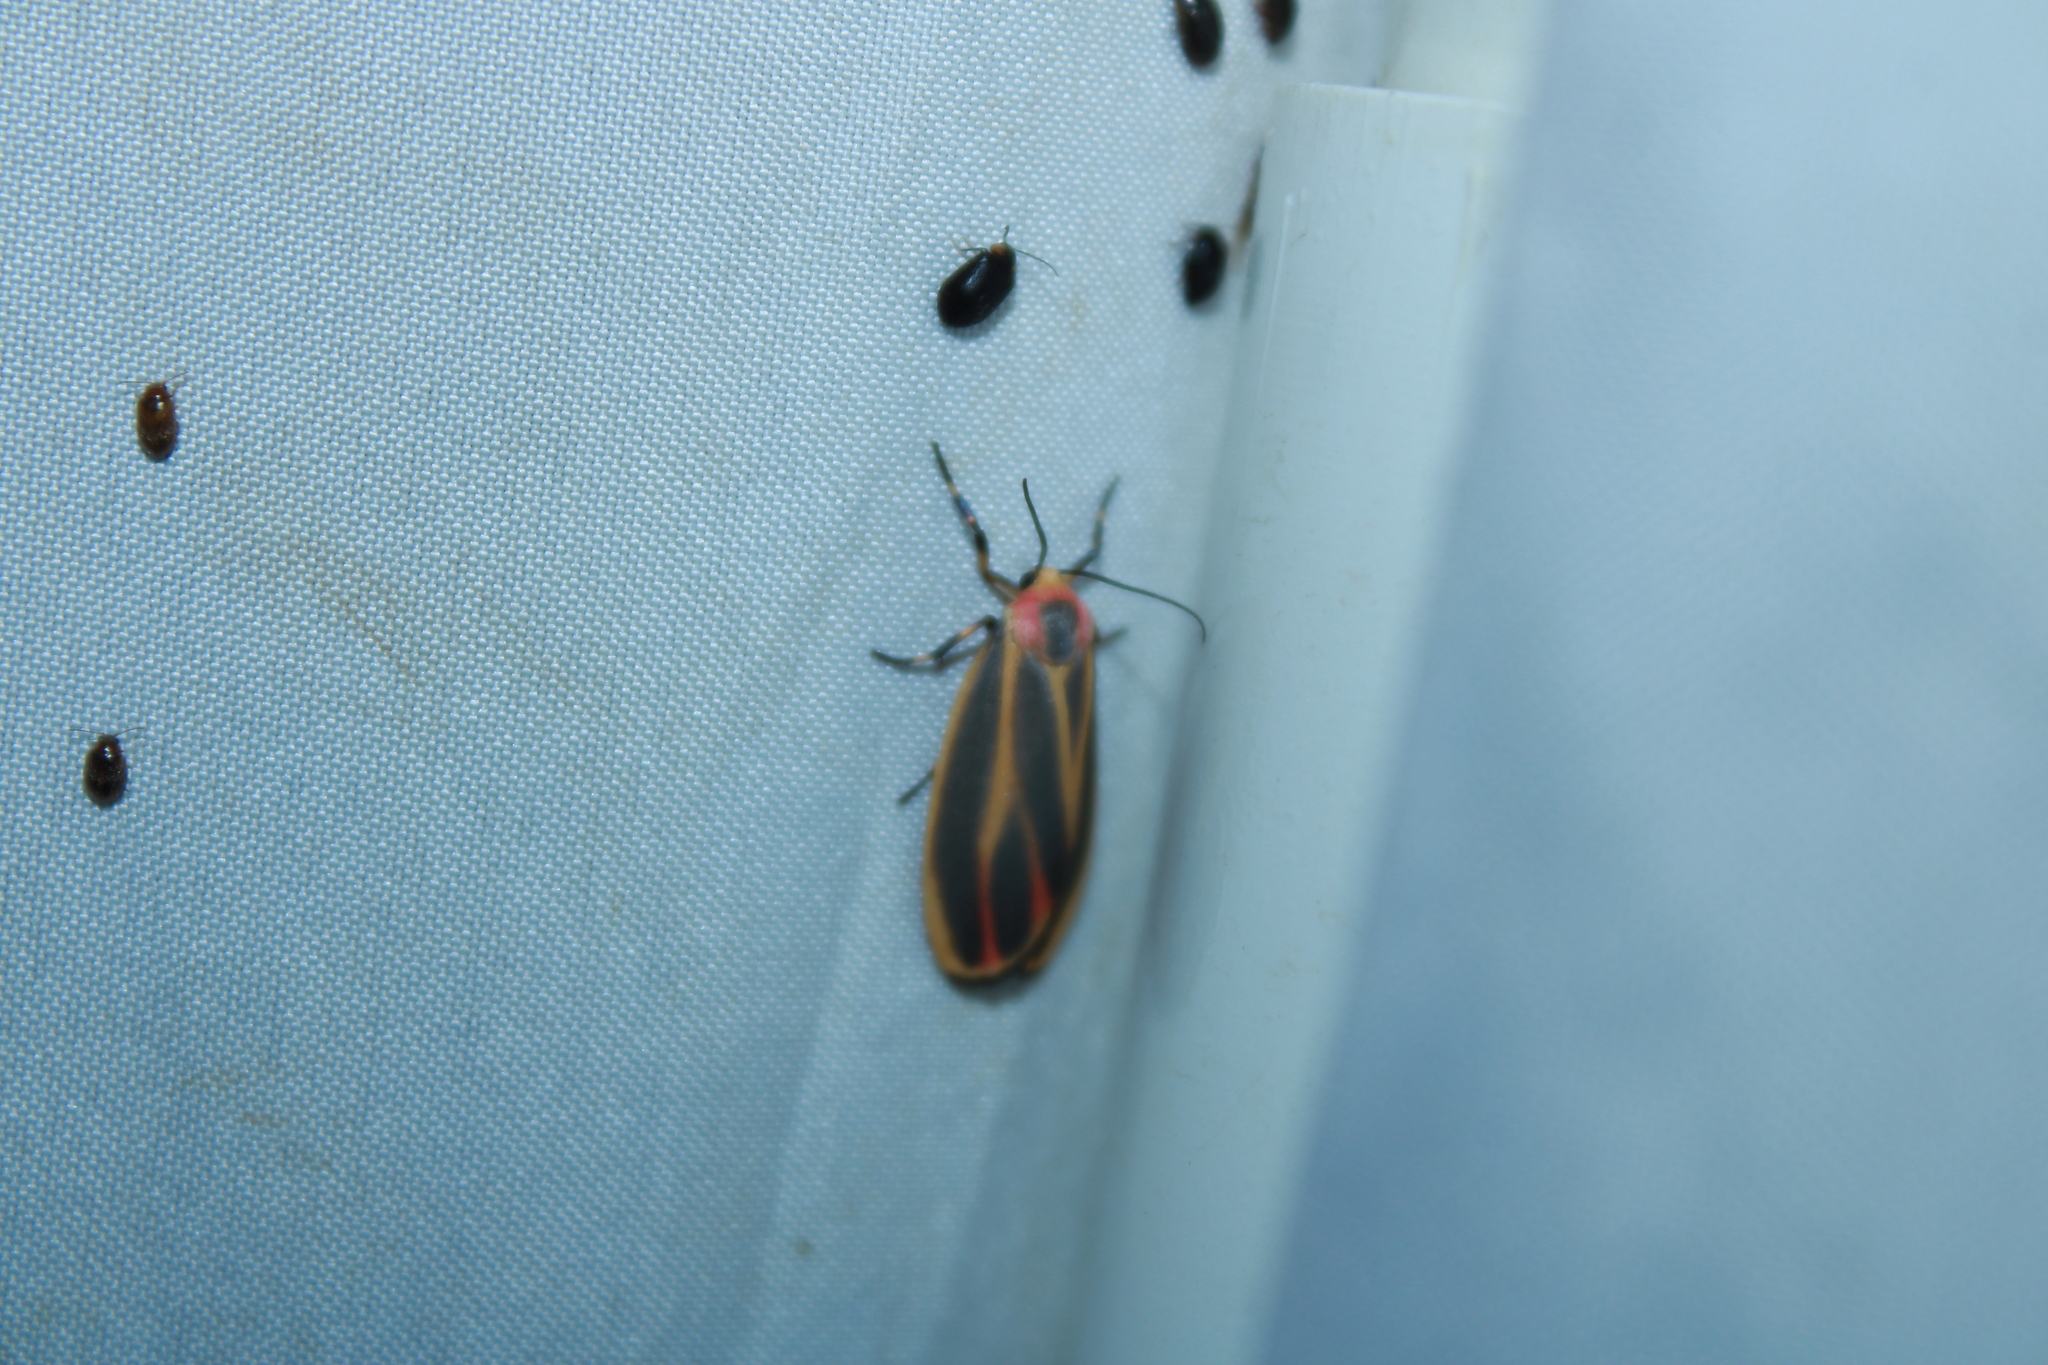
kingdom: Animalia
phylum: Arthropoda
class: Insecta
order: Lepidoptera
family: Erebidae
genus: Hypoprepia
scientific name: Hypoprepia fucosa
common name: Painted lichen moth
